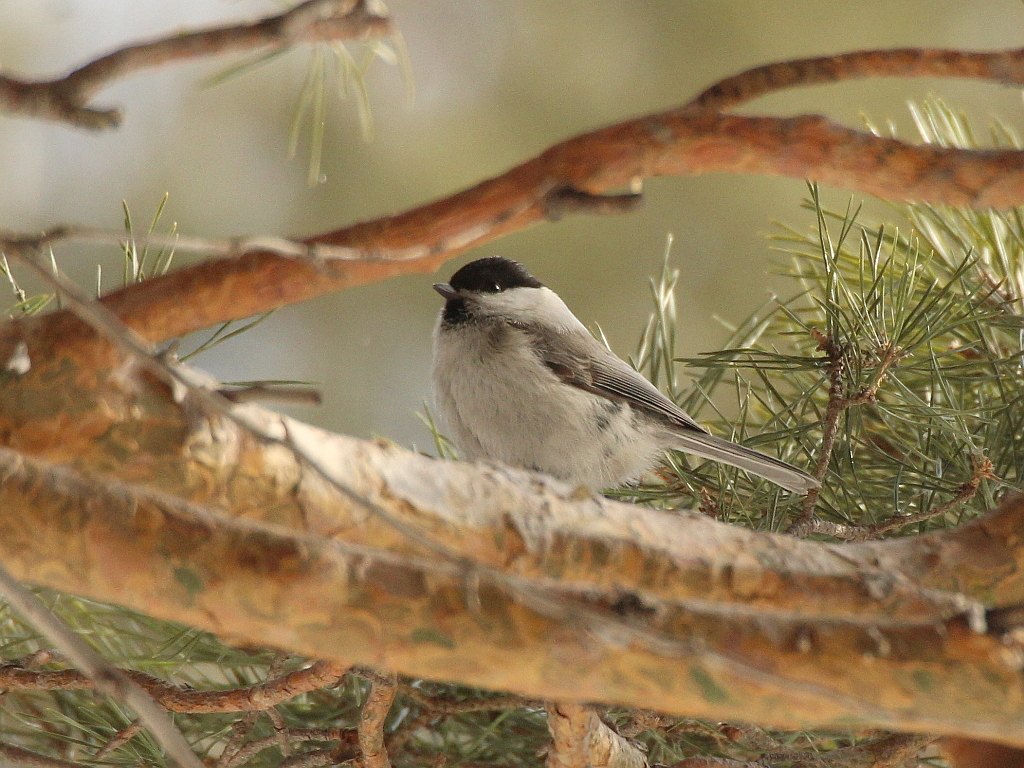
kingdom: Animalia
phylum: Chordata
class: Aves
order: Passeriformes
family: Paridae
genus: Poecile
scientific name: Poecile montanus
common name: Willow tit
